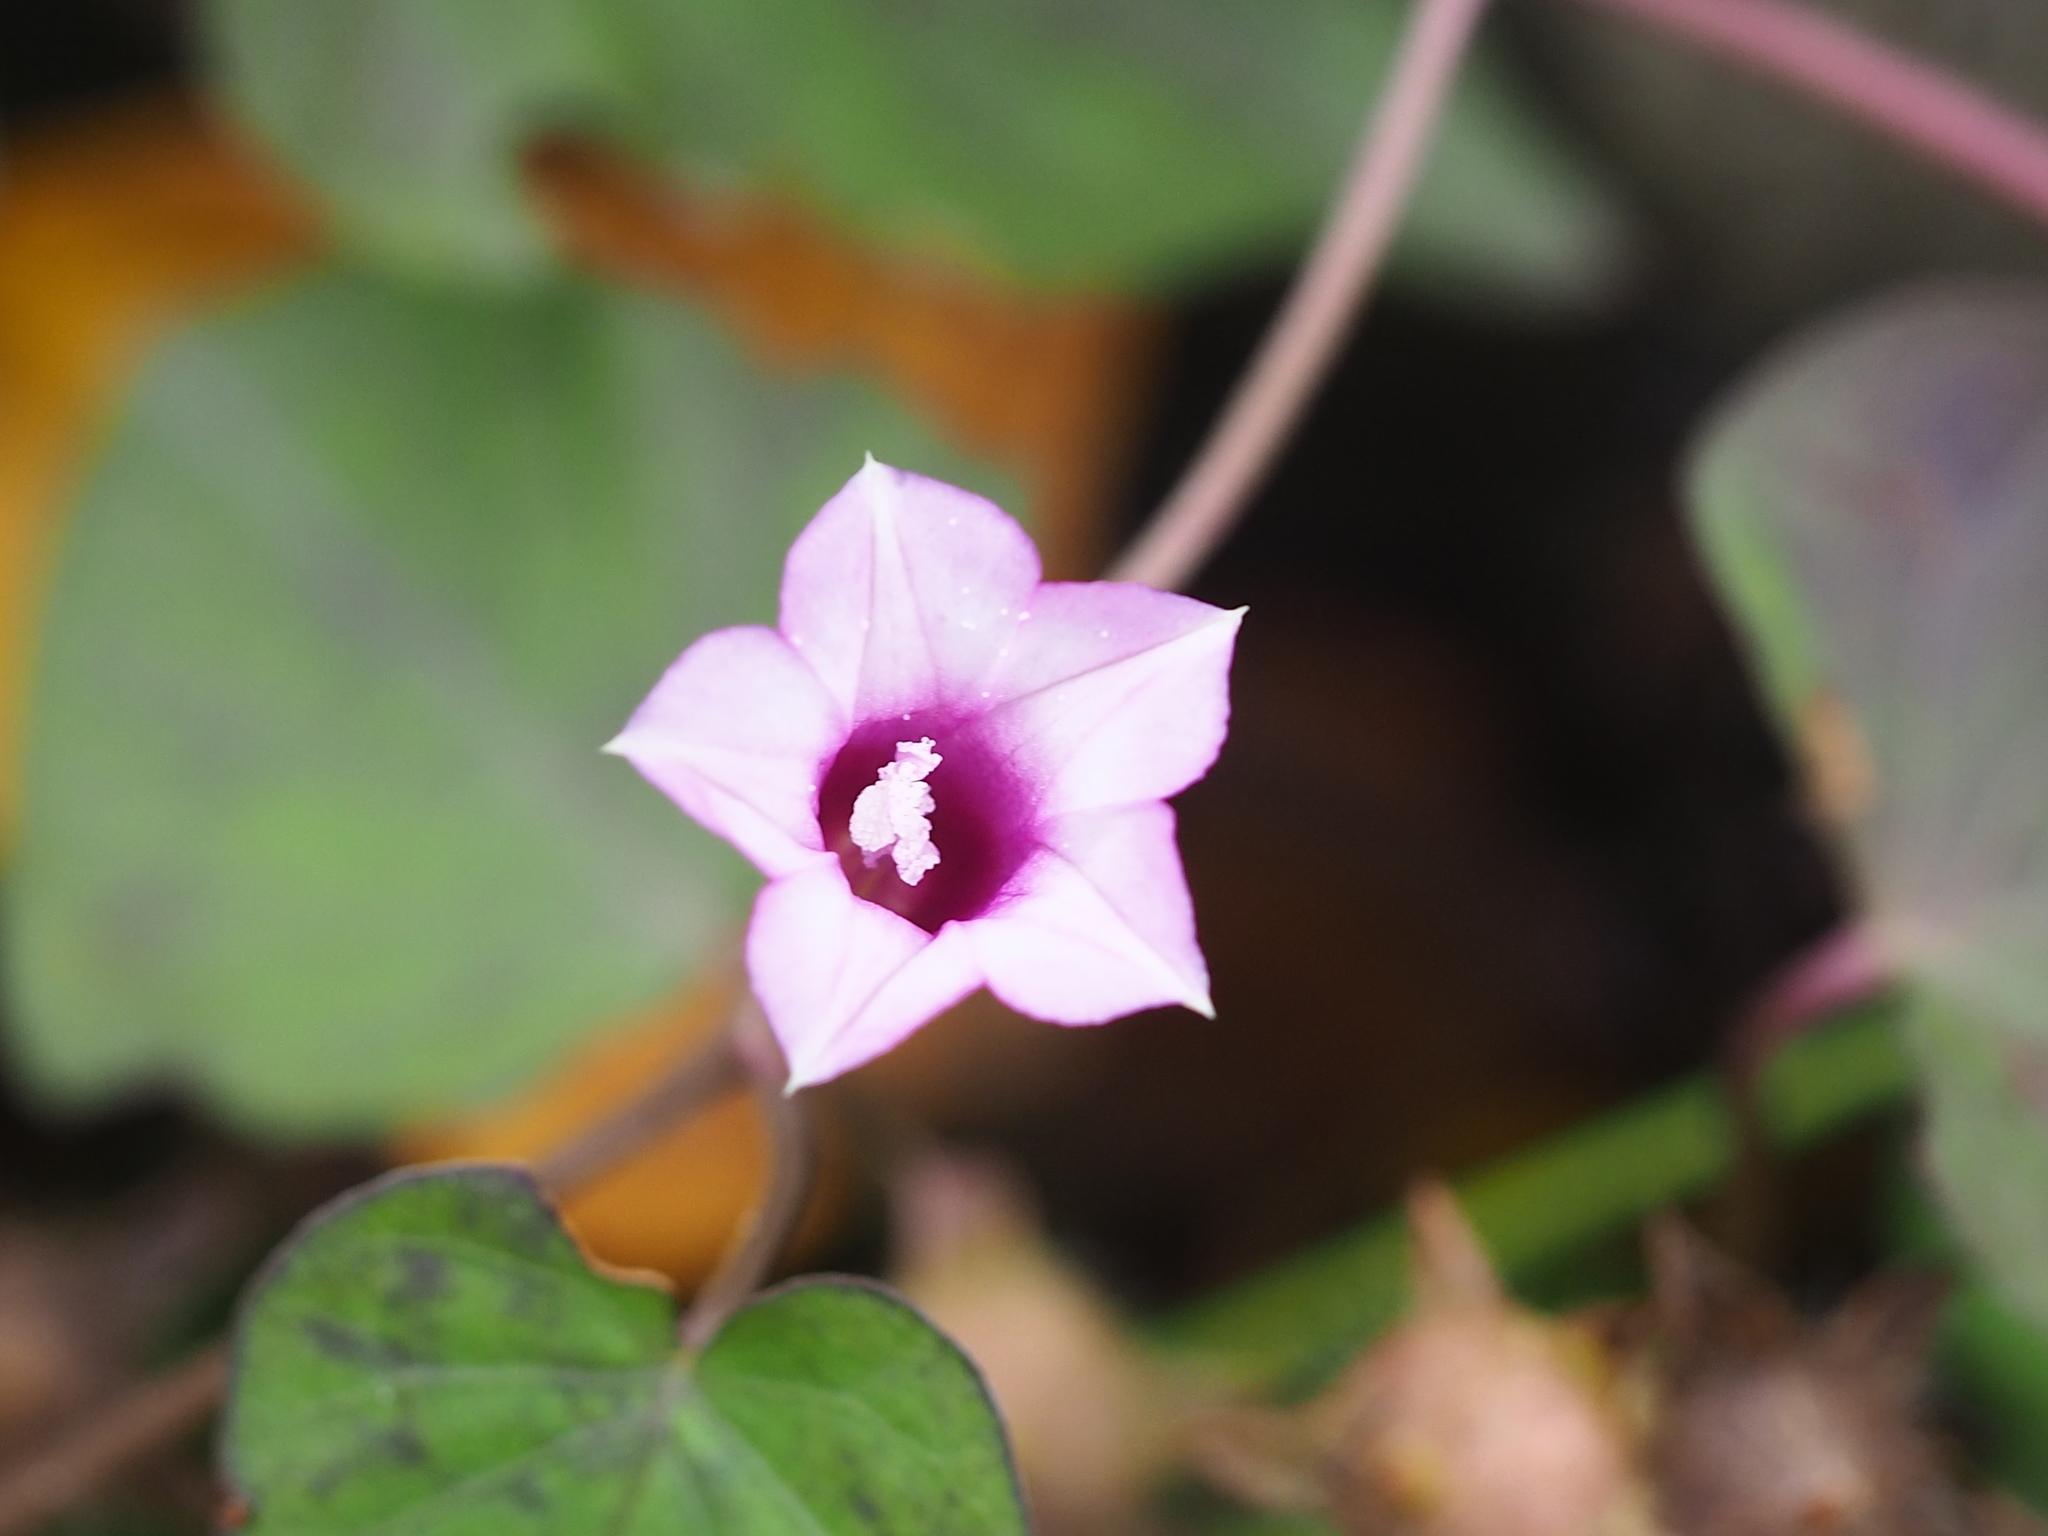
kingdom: Plantae
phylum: Tracheophyta
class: Magnoliopsida
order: Solanales
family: Convolvulaceae
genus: Ipomoea
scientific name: Ipomoea triloba
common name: Little-bell
